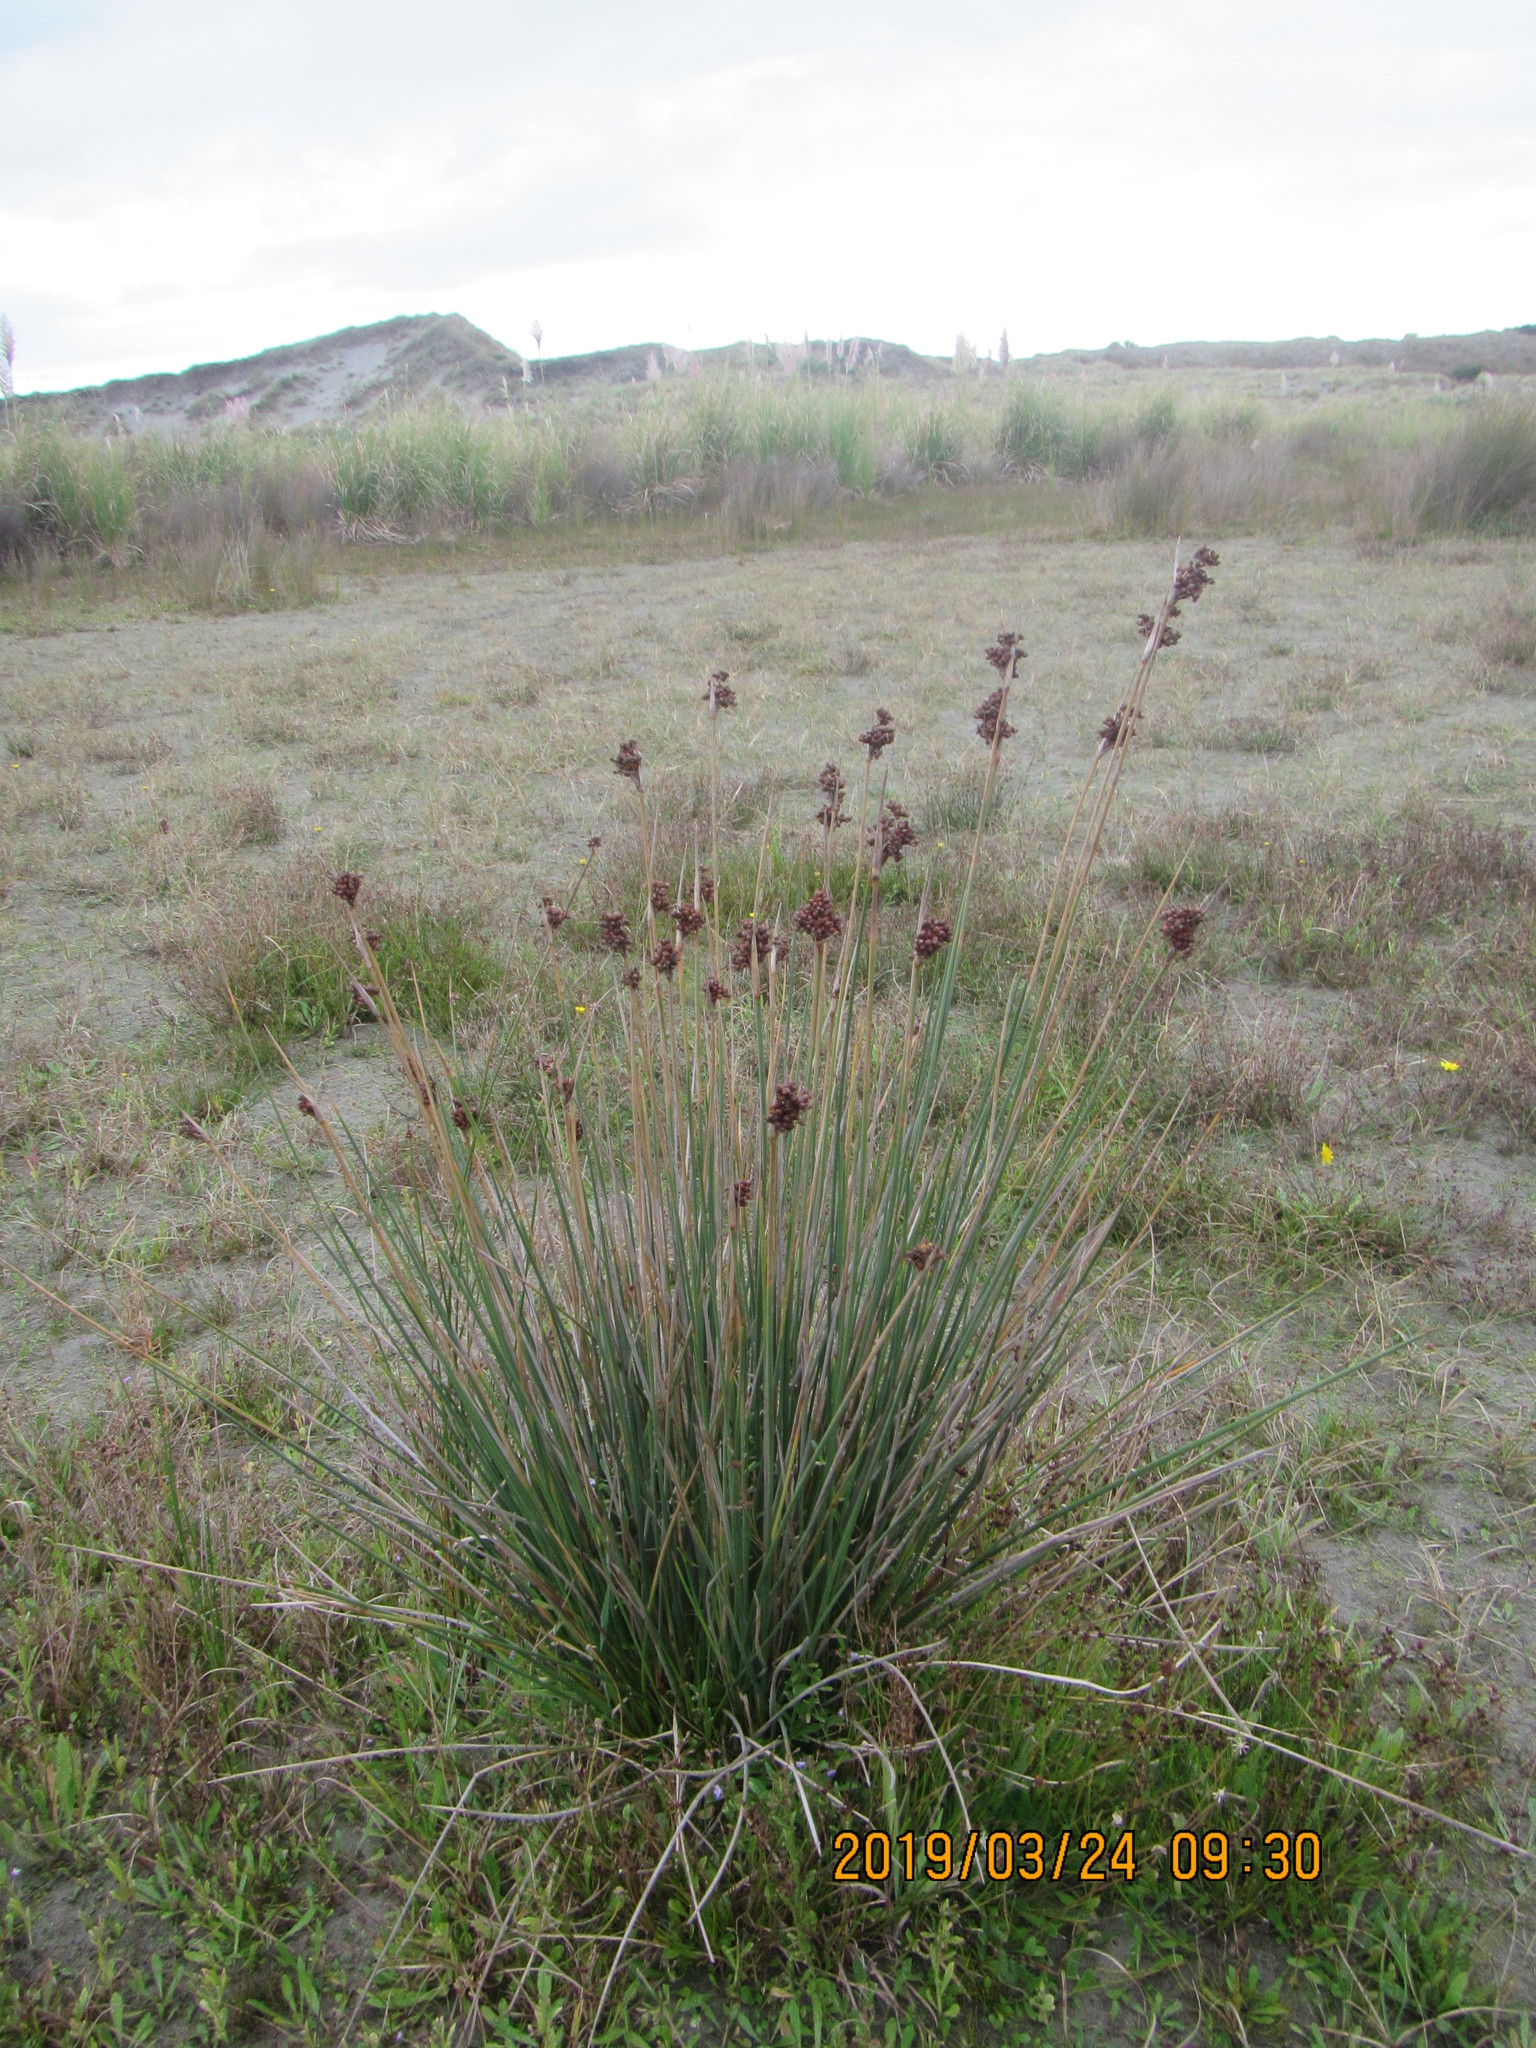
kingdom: Plantae
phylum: Tracheophyta
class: Liliopsida
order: Poales
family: Juncaceae
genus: Juncus
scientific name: Juncus acutus
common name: Sharp rush
